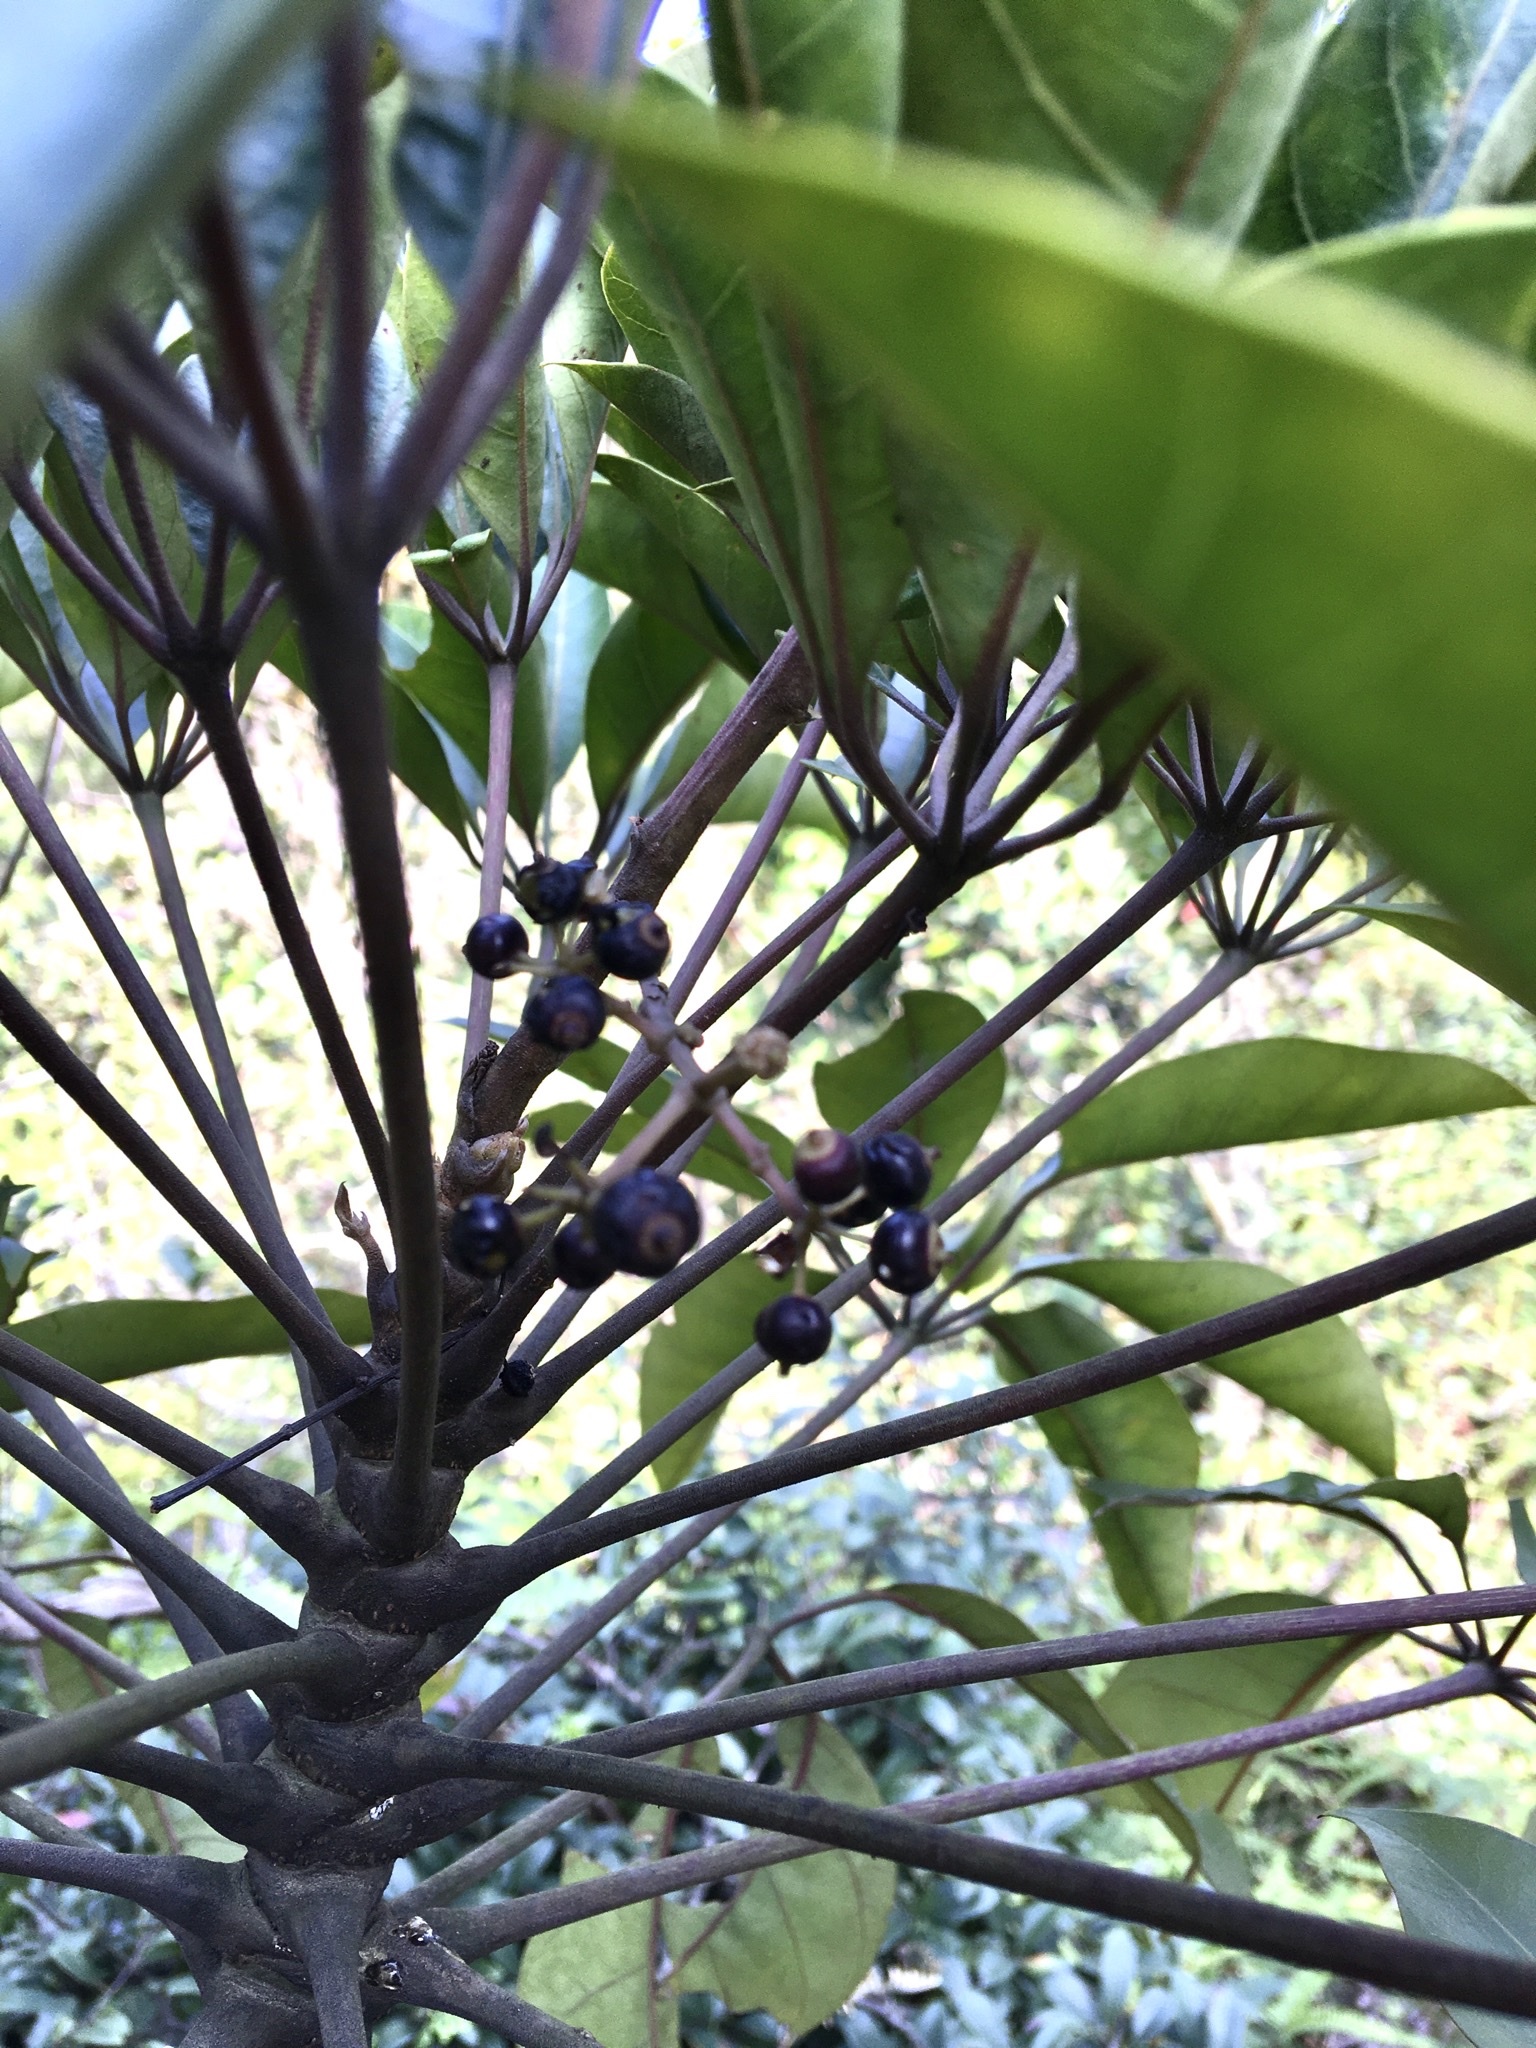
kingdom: Plantae
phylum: Tracheophyta
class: Magnoliopsida
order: Apiales
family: Araliaceae
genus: Heptapleurum
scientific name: Heptapleurum heptaphyllum
